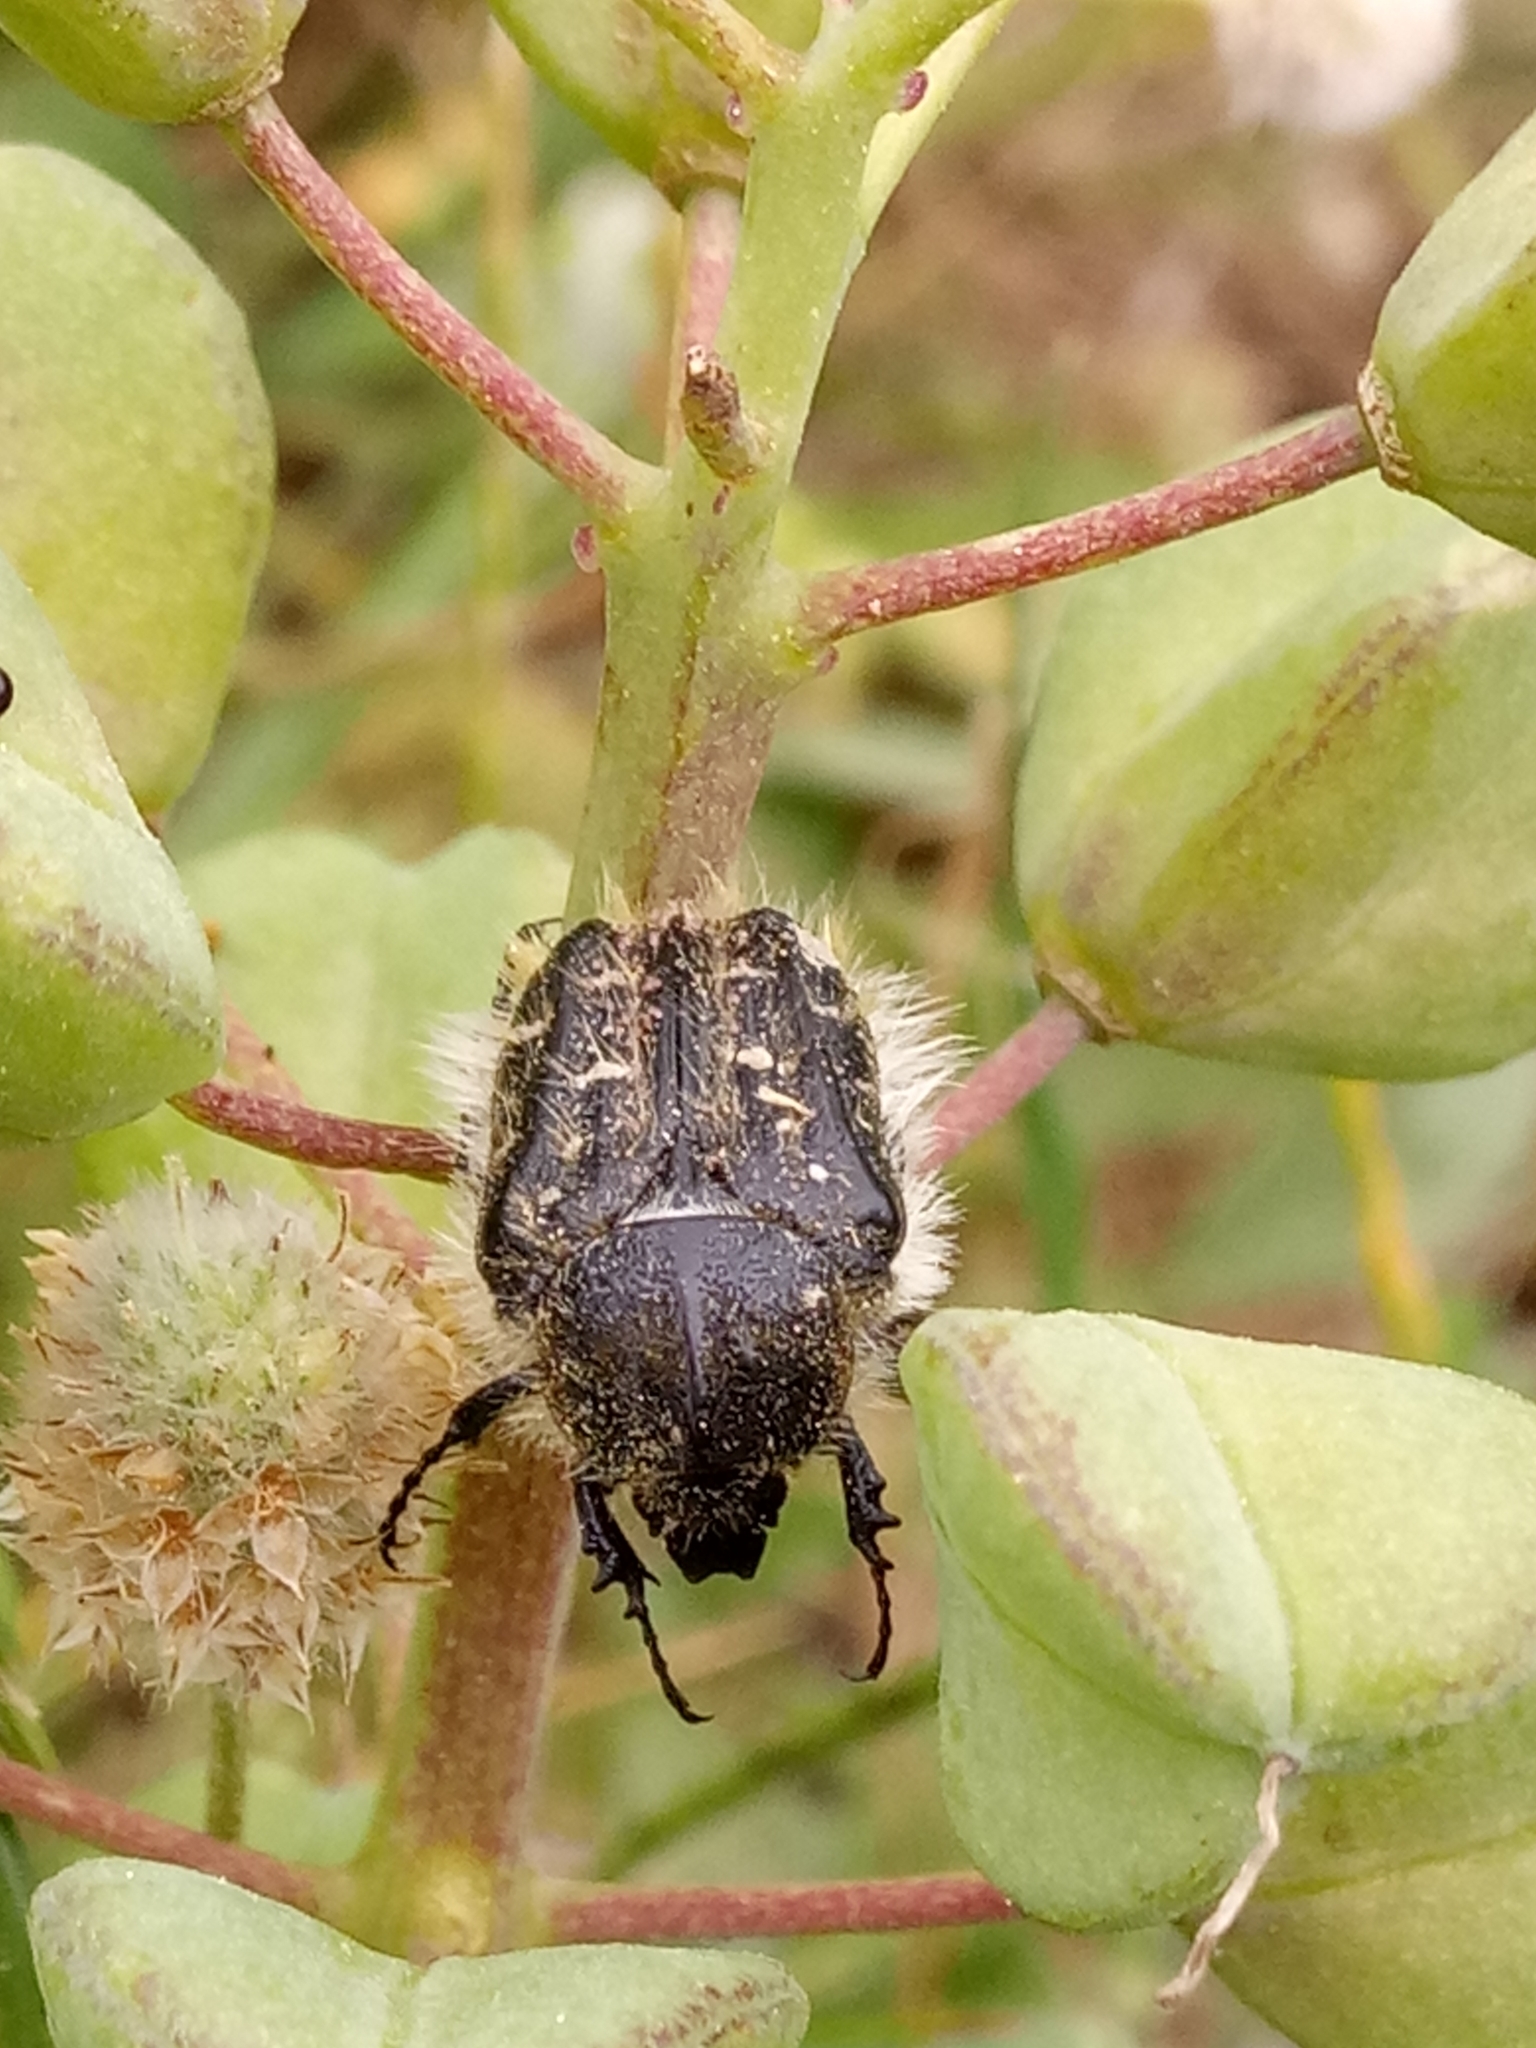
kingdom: Animalia
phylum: Arthropoda
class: Insecta
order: Coleoptera
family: Scarabaeidae
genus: Tropinota
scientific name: Tropinota squalida
